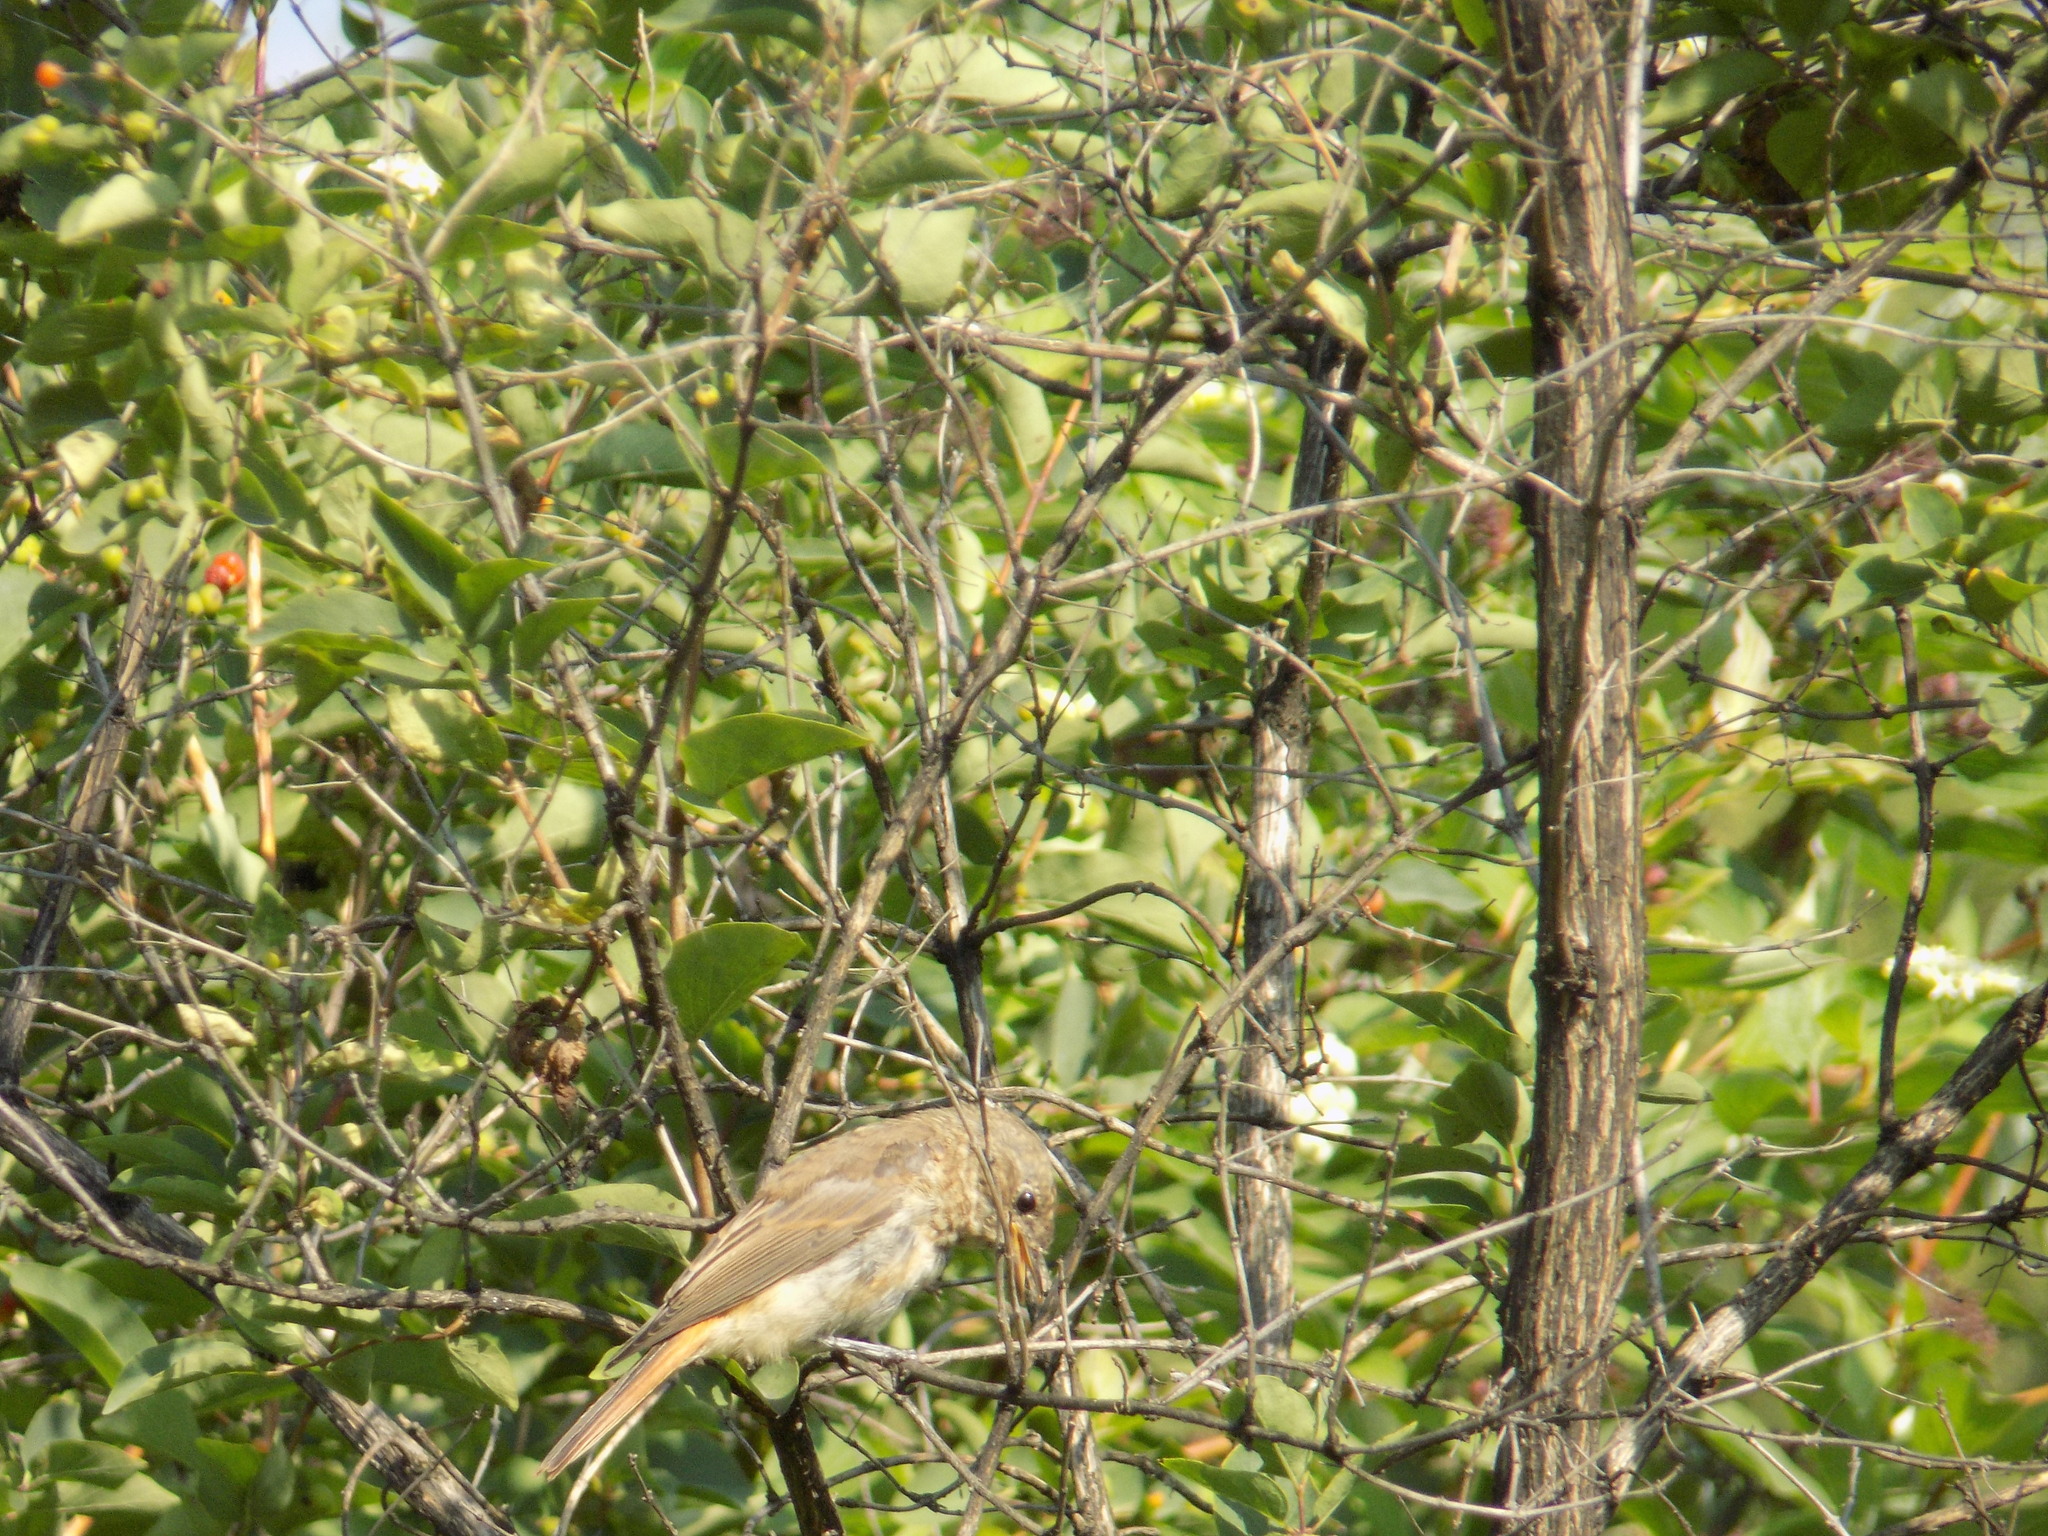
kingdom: Animalia
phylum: Chordata
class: Aves
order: Passeriformes
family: Muscicapidae
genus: Phoenicurus
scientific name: Phoenicurus phoenicurus
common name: Common redstart
